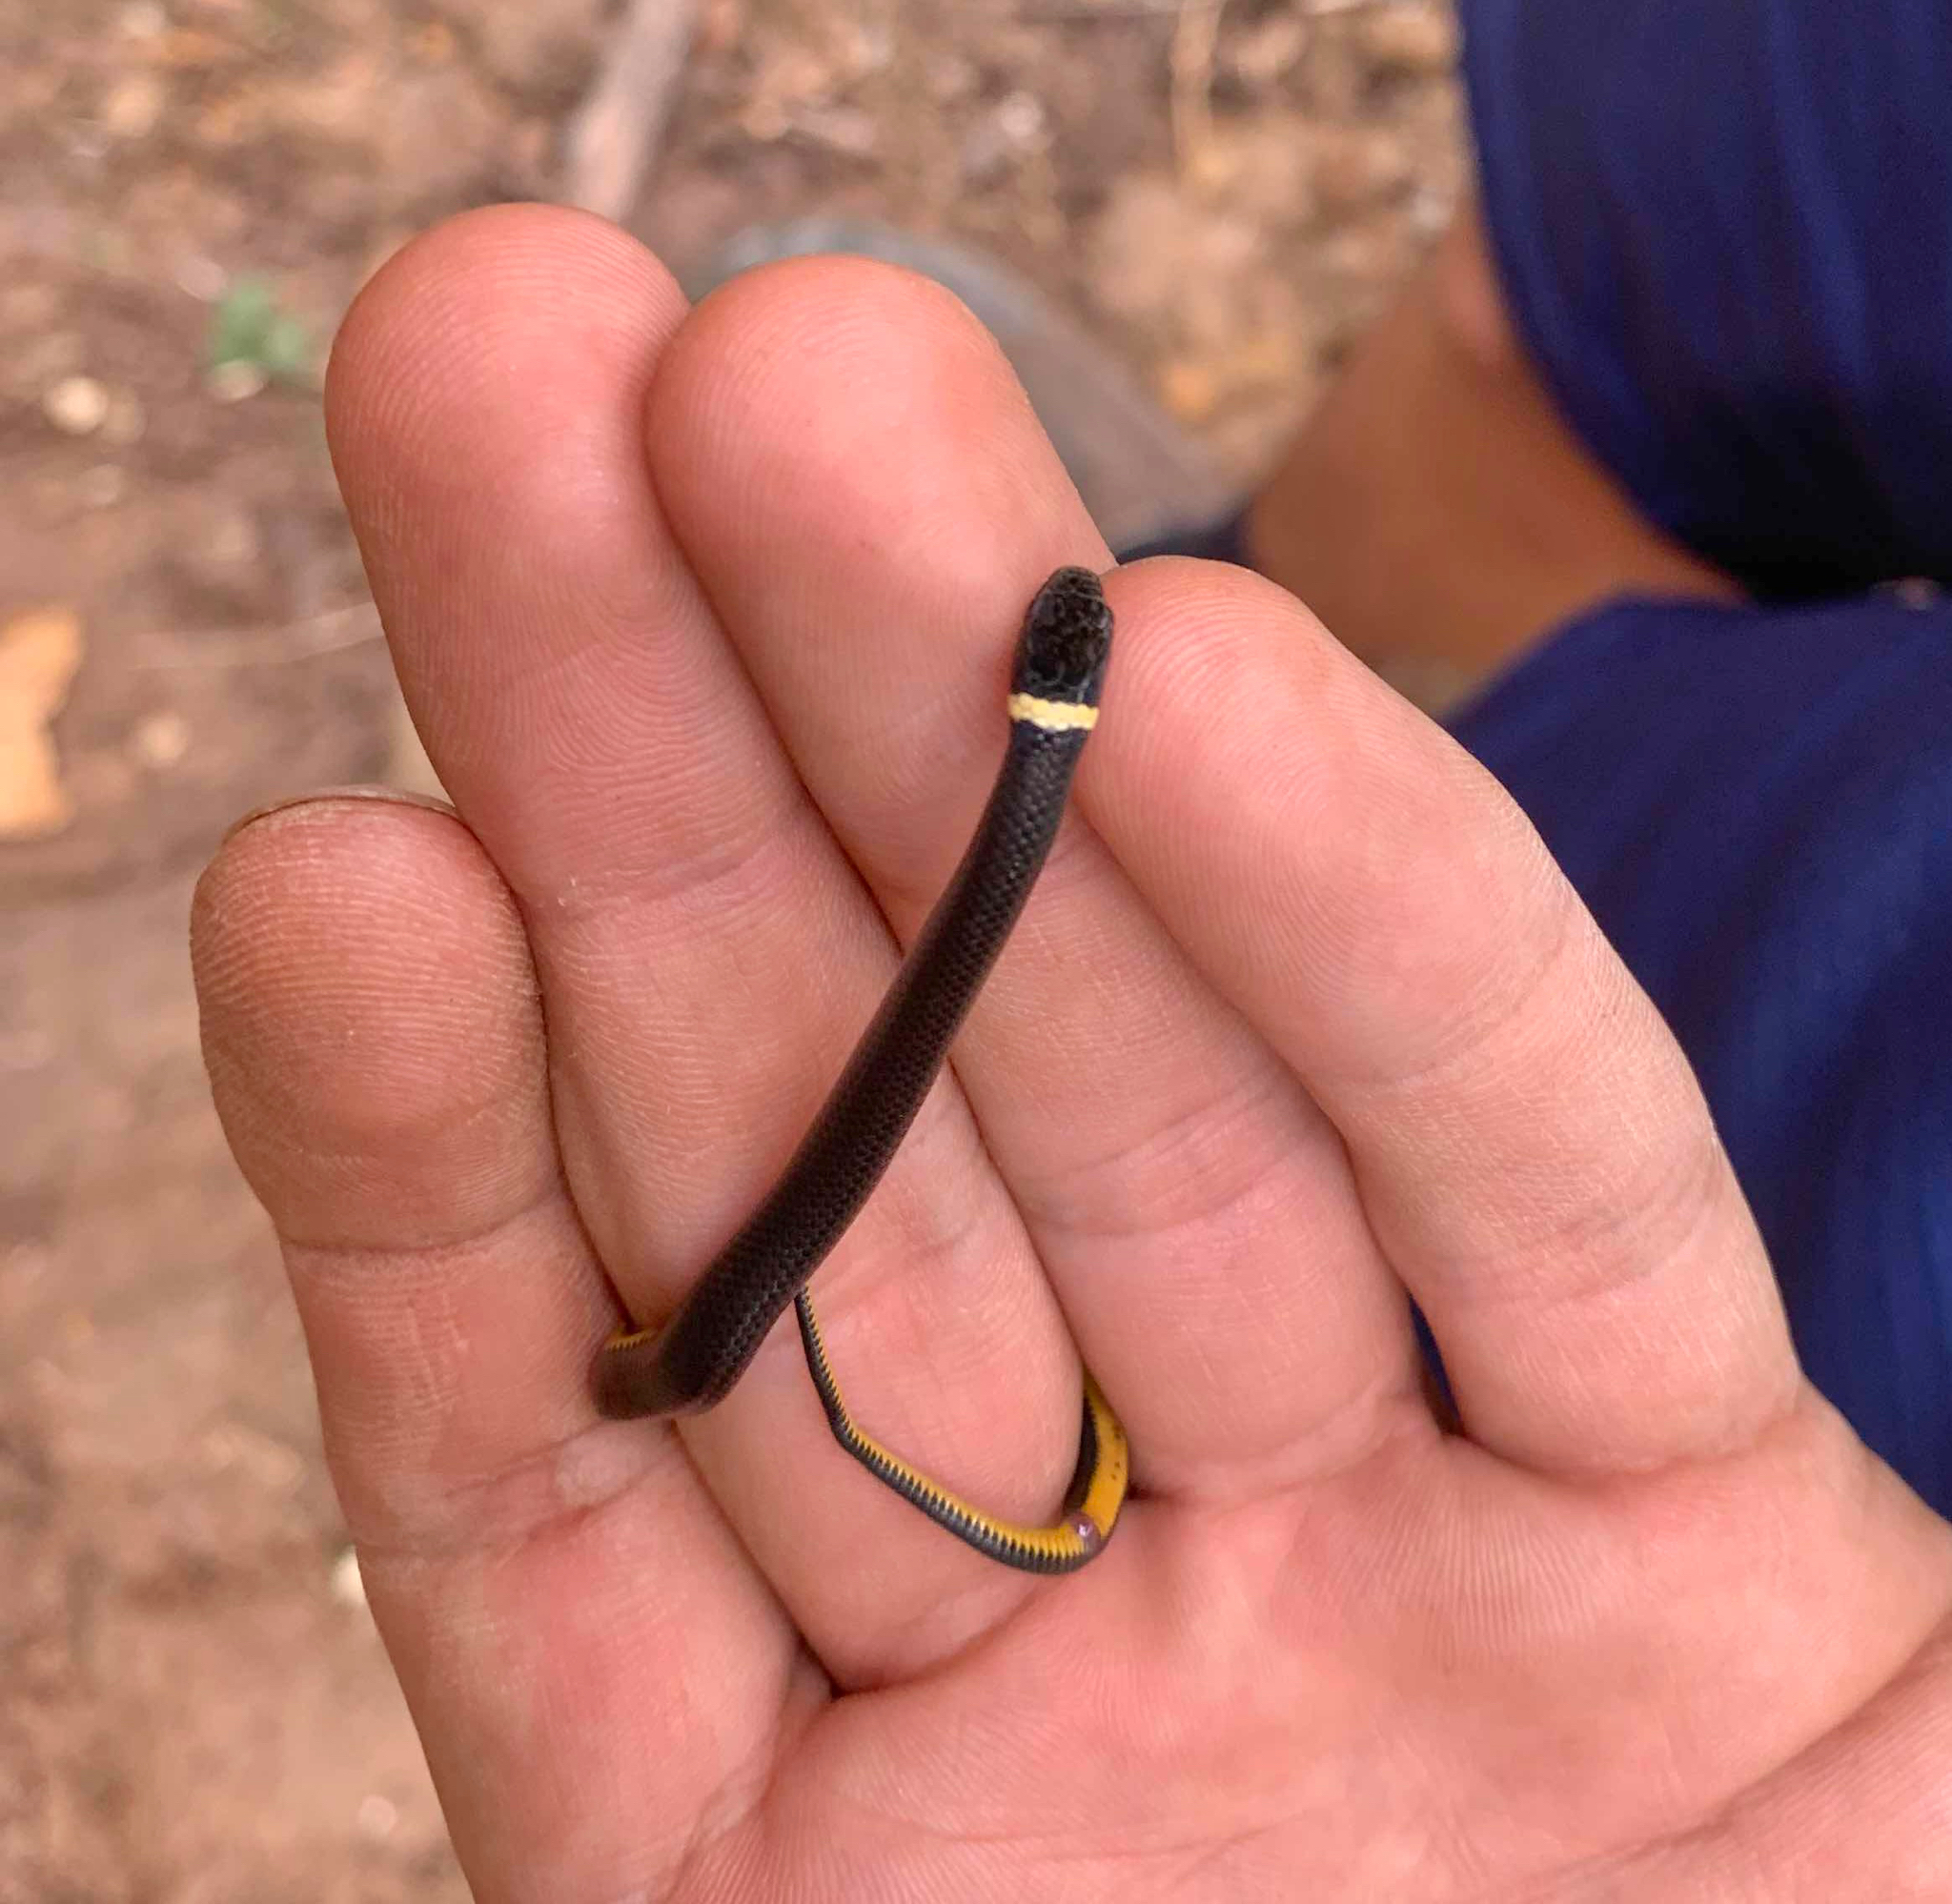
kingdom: Animalia
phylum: Chordata
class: Squamata
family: Colubridae
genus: Diadophis
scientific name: Diadophis punctatus
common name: Ringneck snake
